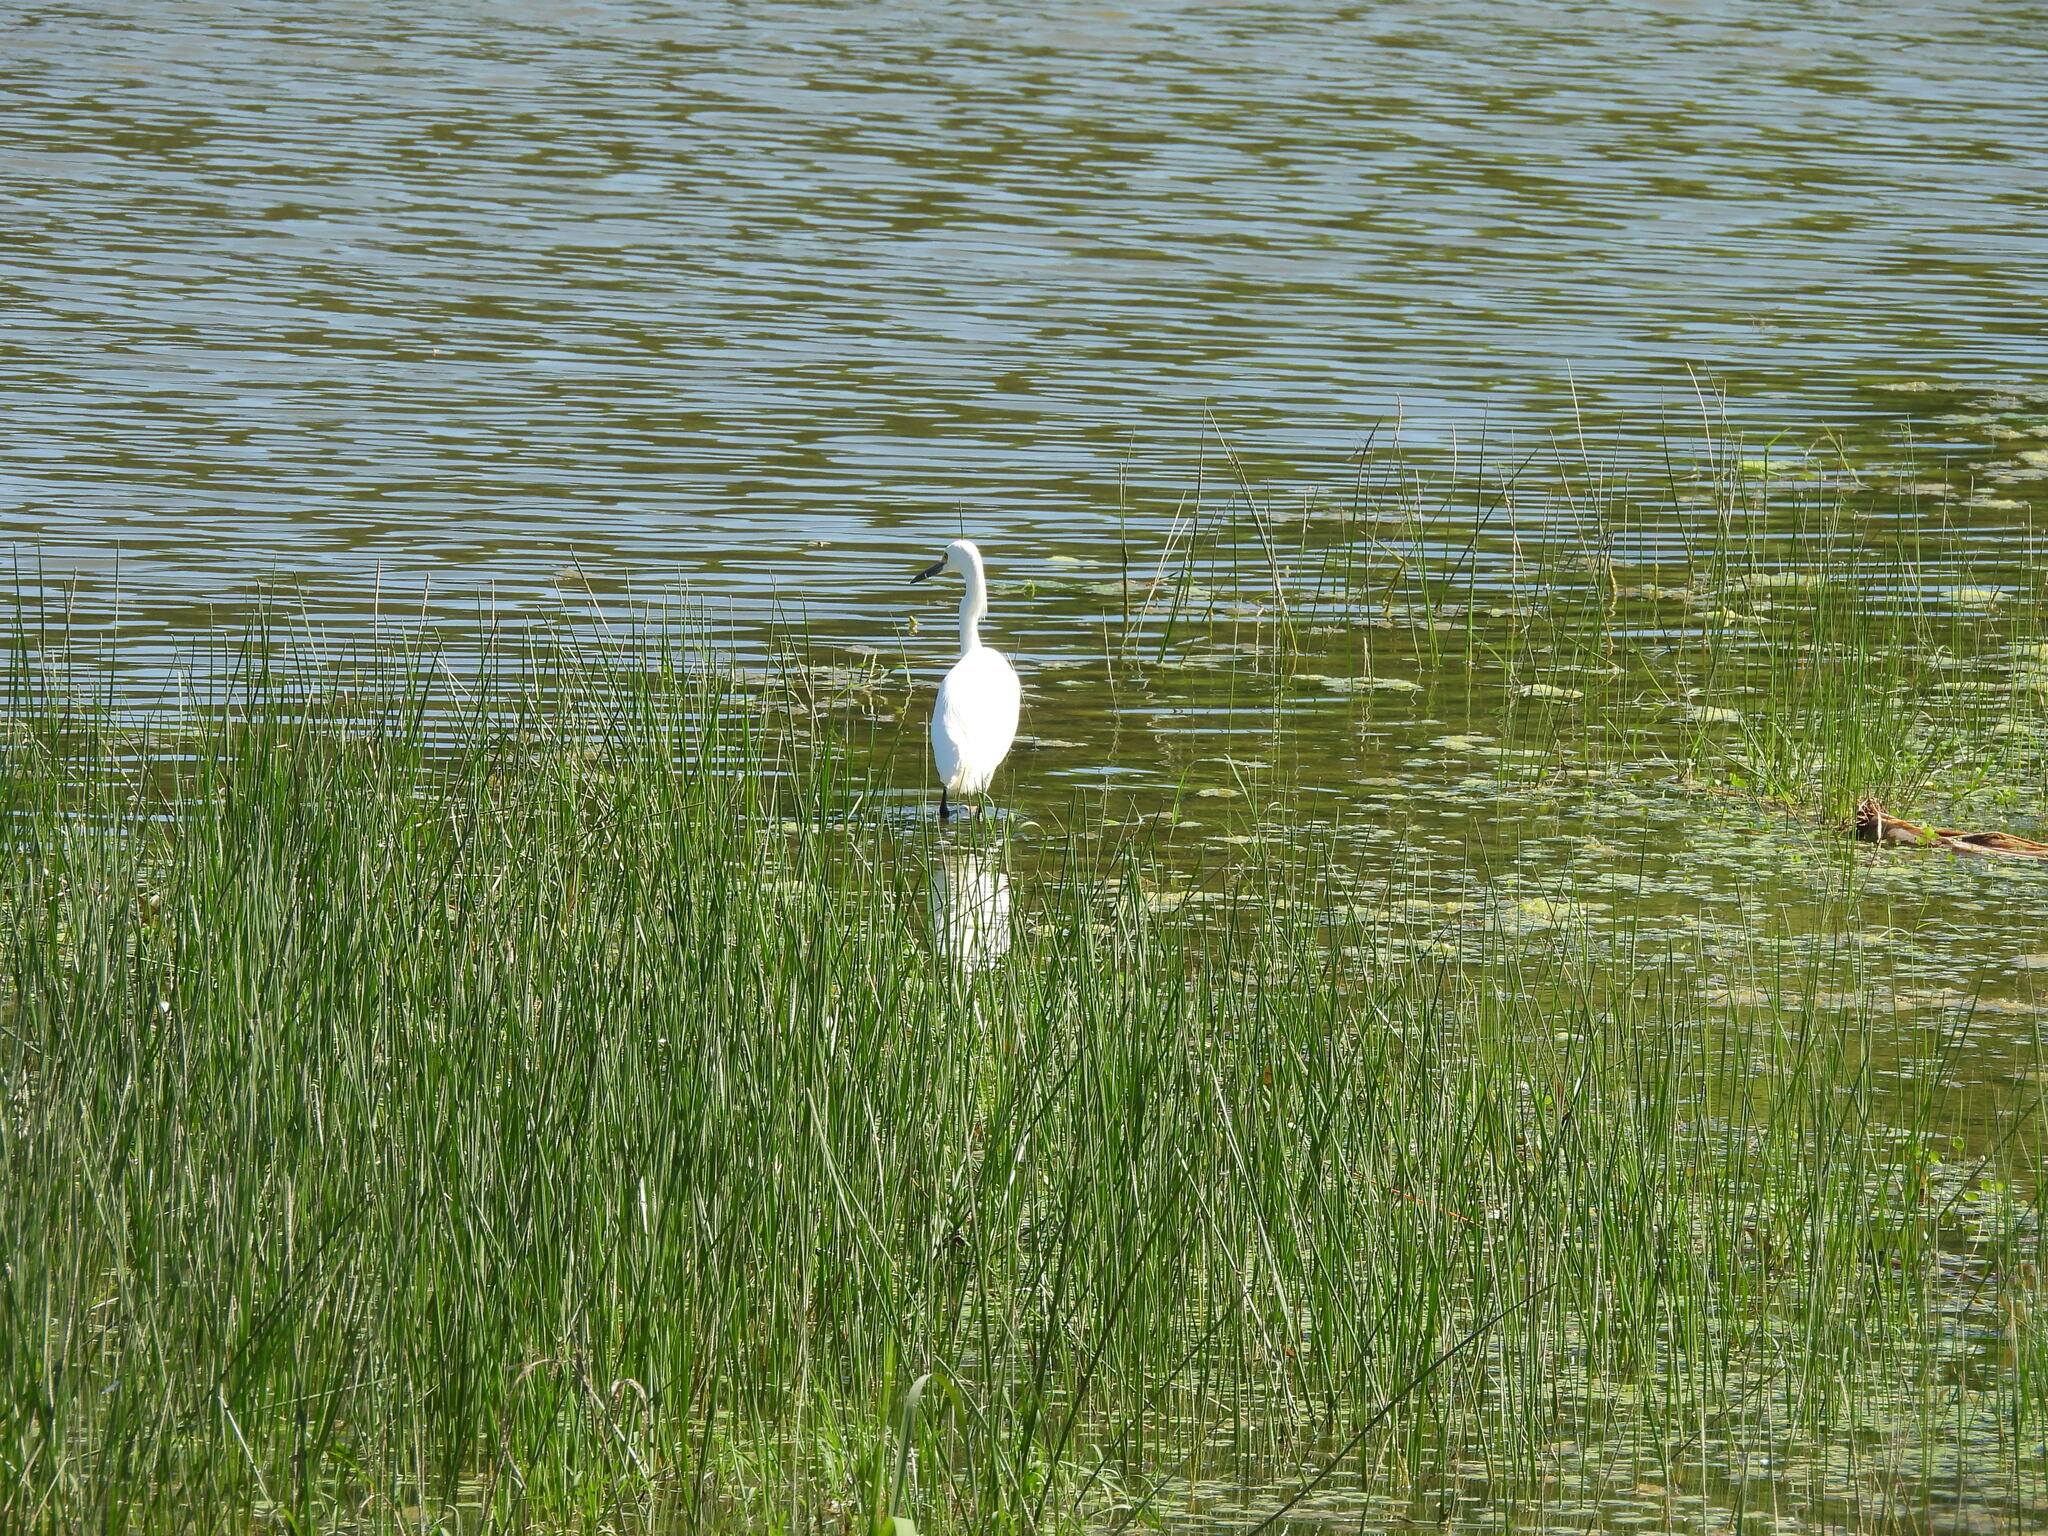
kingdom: Animalia
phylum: Chordata
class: Aves
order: Pelecaniformes
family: Ardeidae
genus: Egretta
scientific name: Egretta thula
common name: Snowy egret
